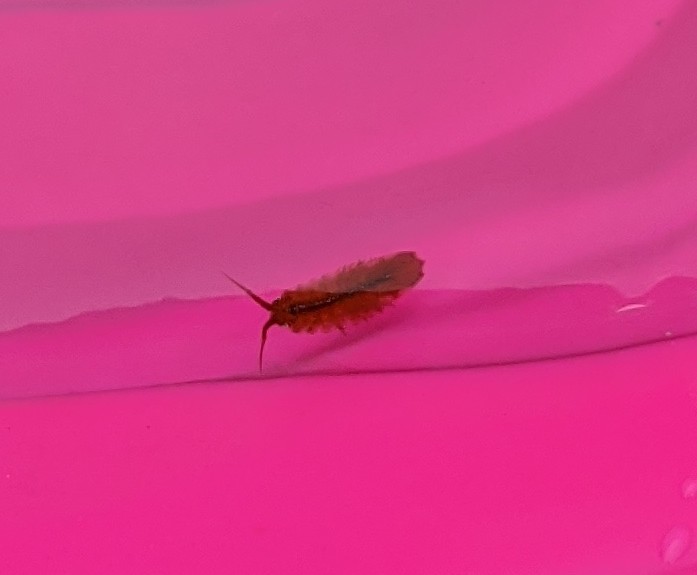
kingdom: Animalia
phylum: Arthropoda
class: Malacostraca
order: Isopoda
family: Idoteidae
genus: Idotea
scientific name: Idotea balthica
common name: Baltic isopod
